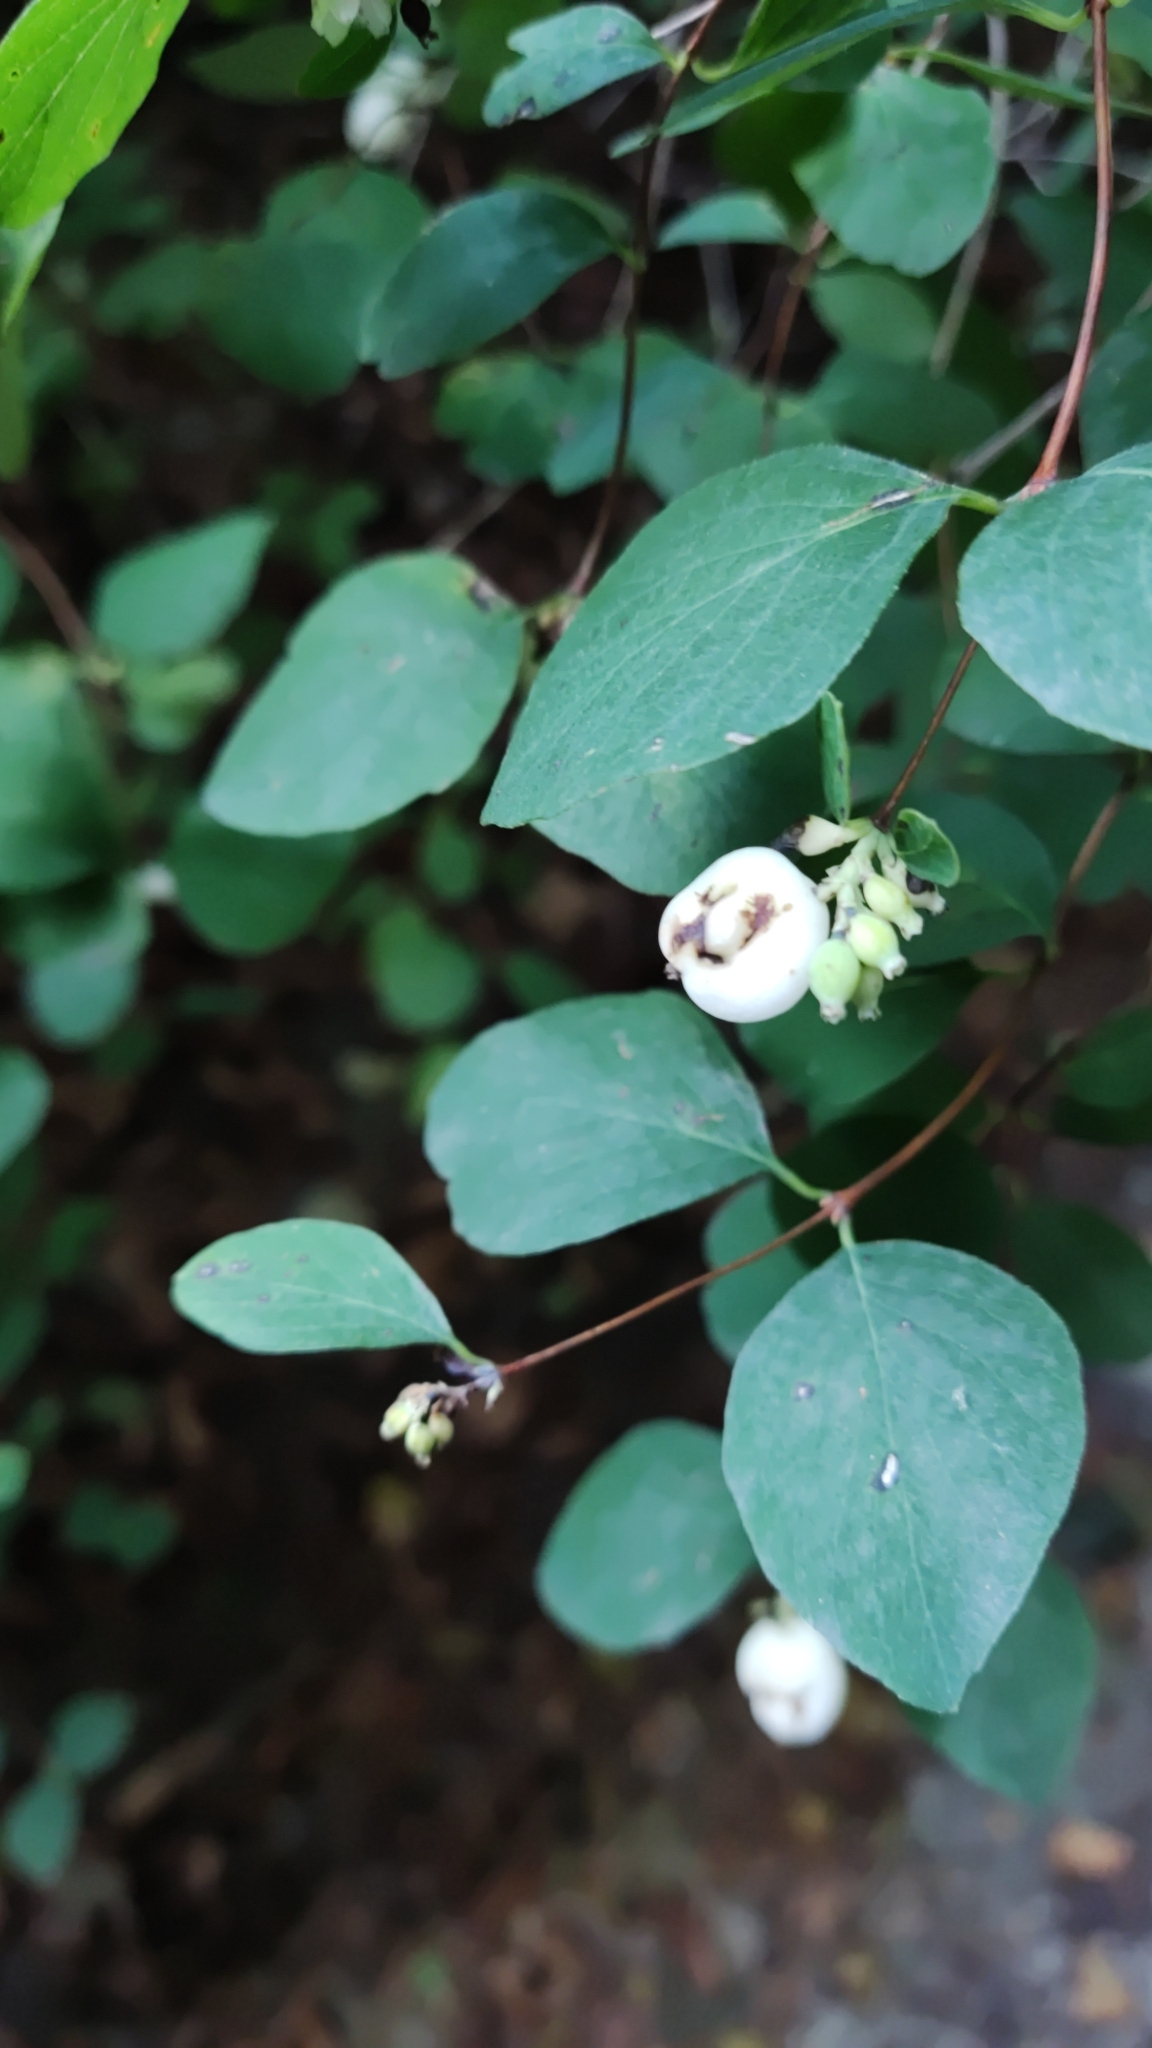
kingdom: Plantae
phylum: Tracheophyta
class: Magnoliopsida
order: Dipsacales
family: Caprifoliaceae
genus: Symphoricarpos
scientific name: Symphoricarpos albus
